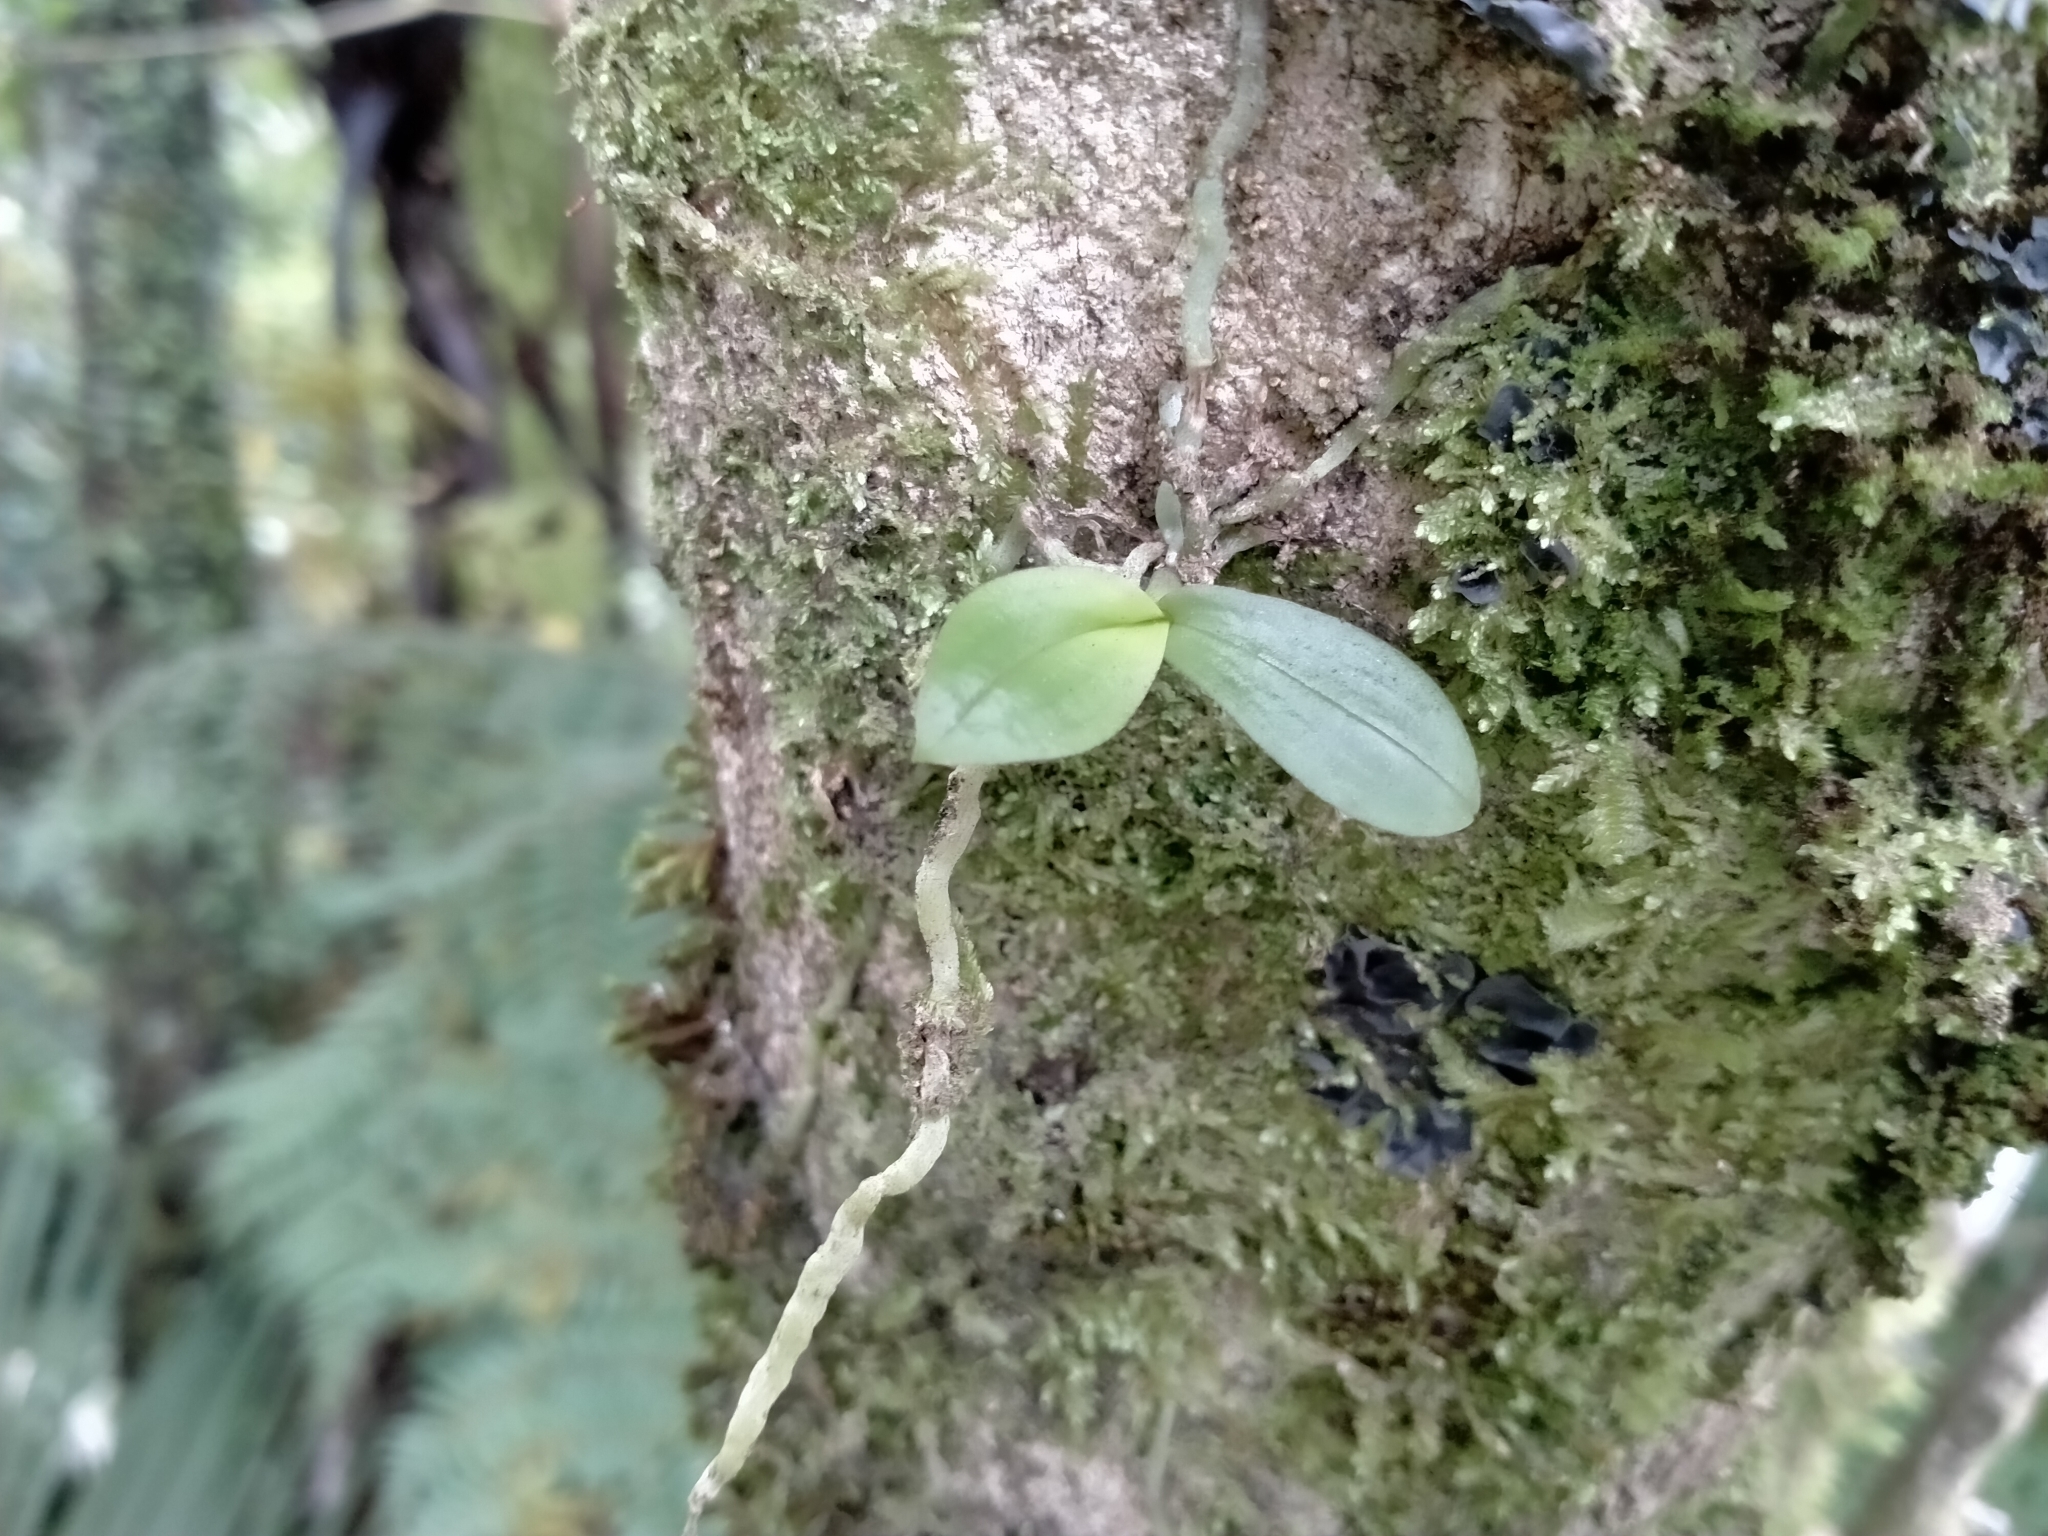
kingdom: Plantae
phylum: Tracheophyta
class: Liliopsida
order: Asparagales
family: Orchidaceae
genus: Drymoanthus
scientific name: Drymoanthus adversus
